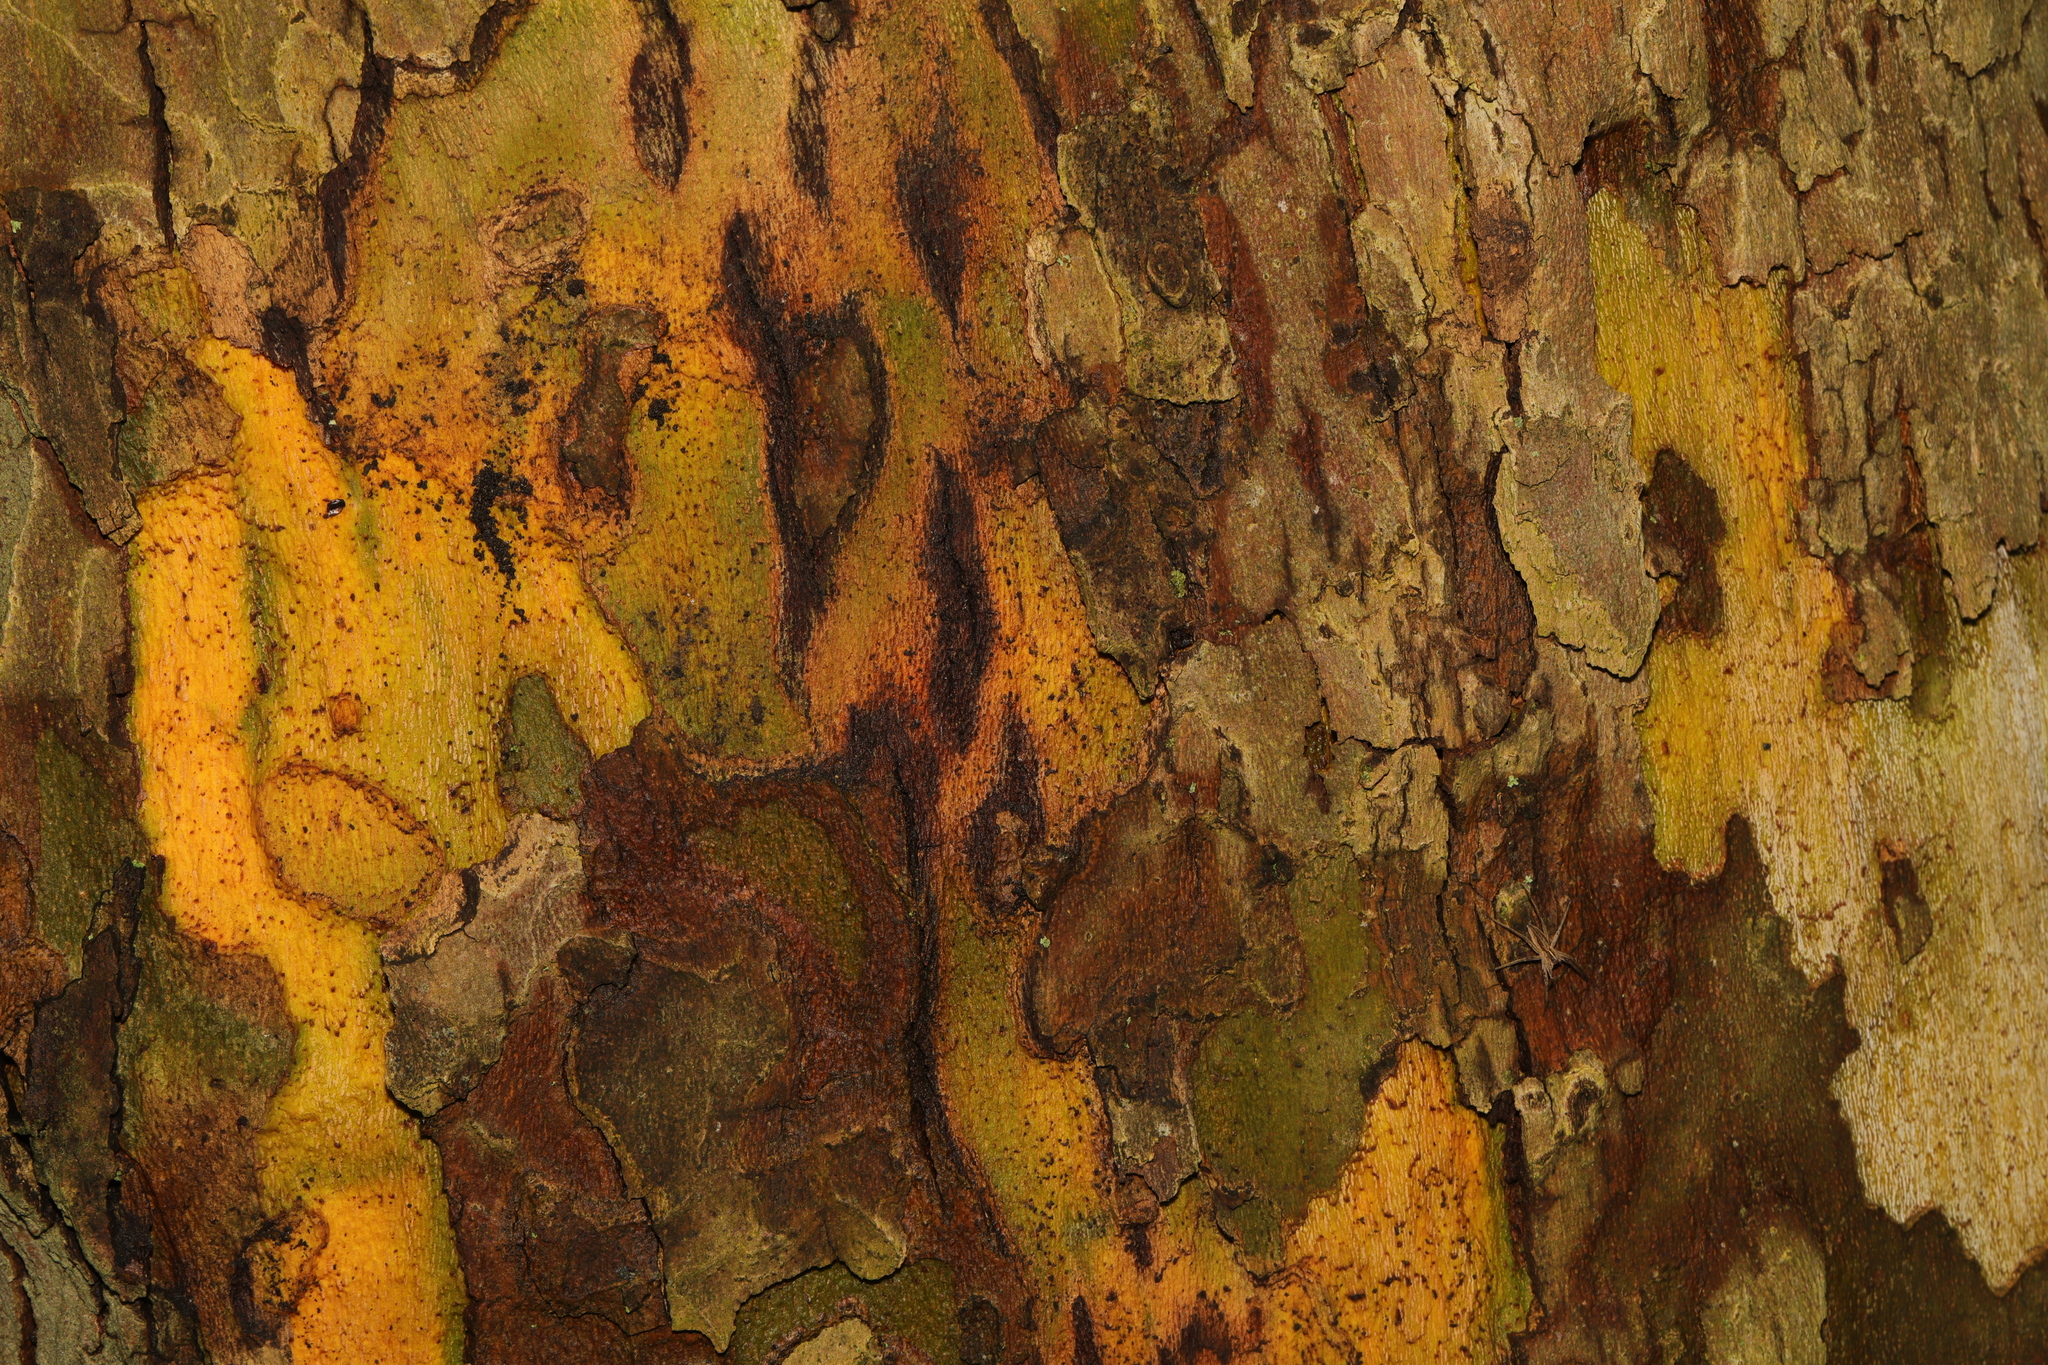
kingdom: Plantae
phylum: Tracheophyta
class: Magnoliopsida
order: Proteales
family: Platanaceae
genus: Platanus
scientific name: Platanus hispanica
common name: London plane
